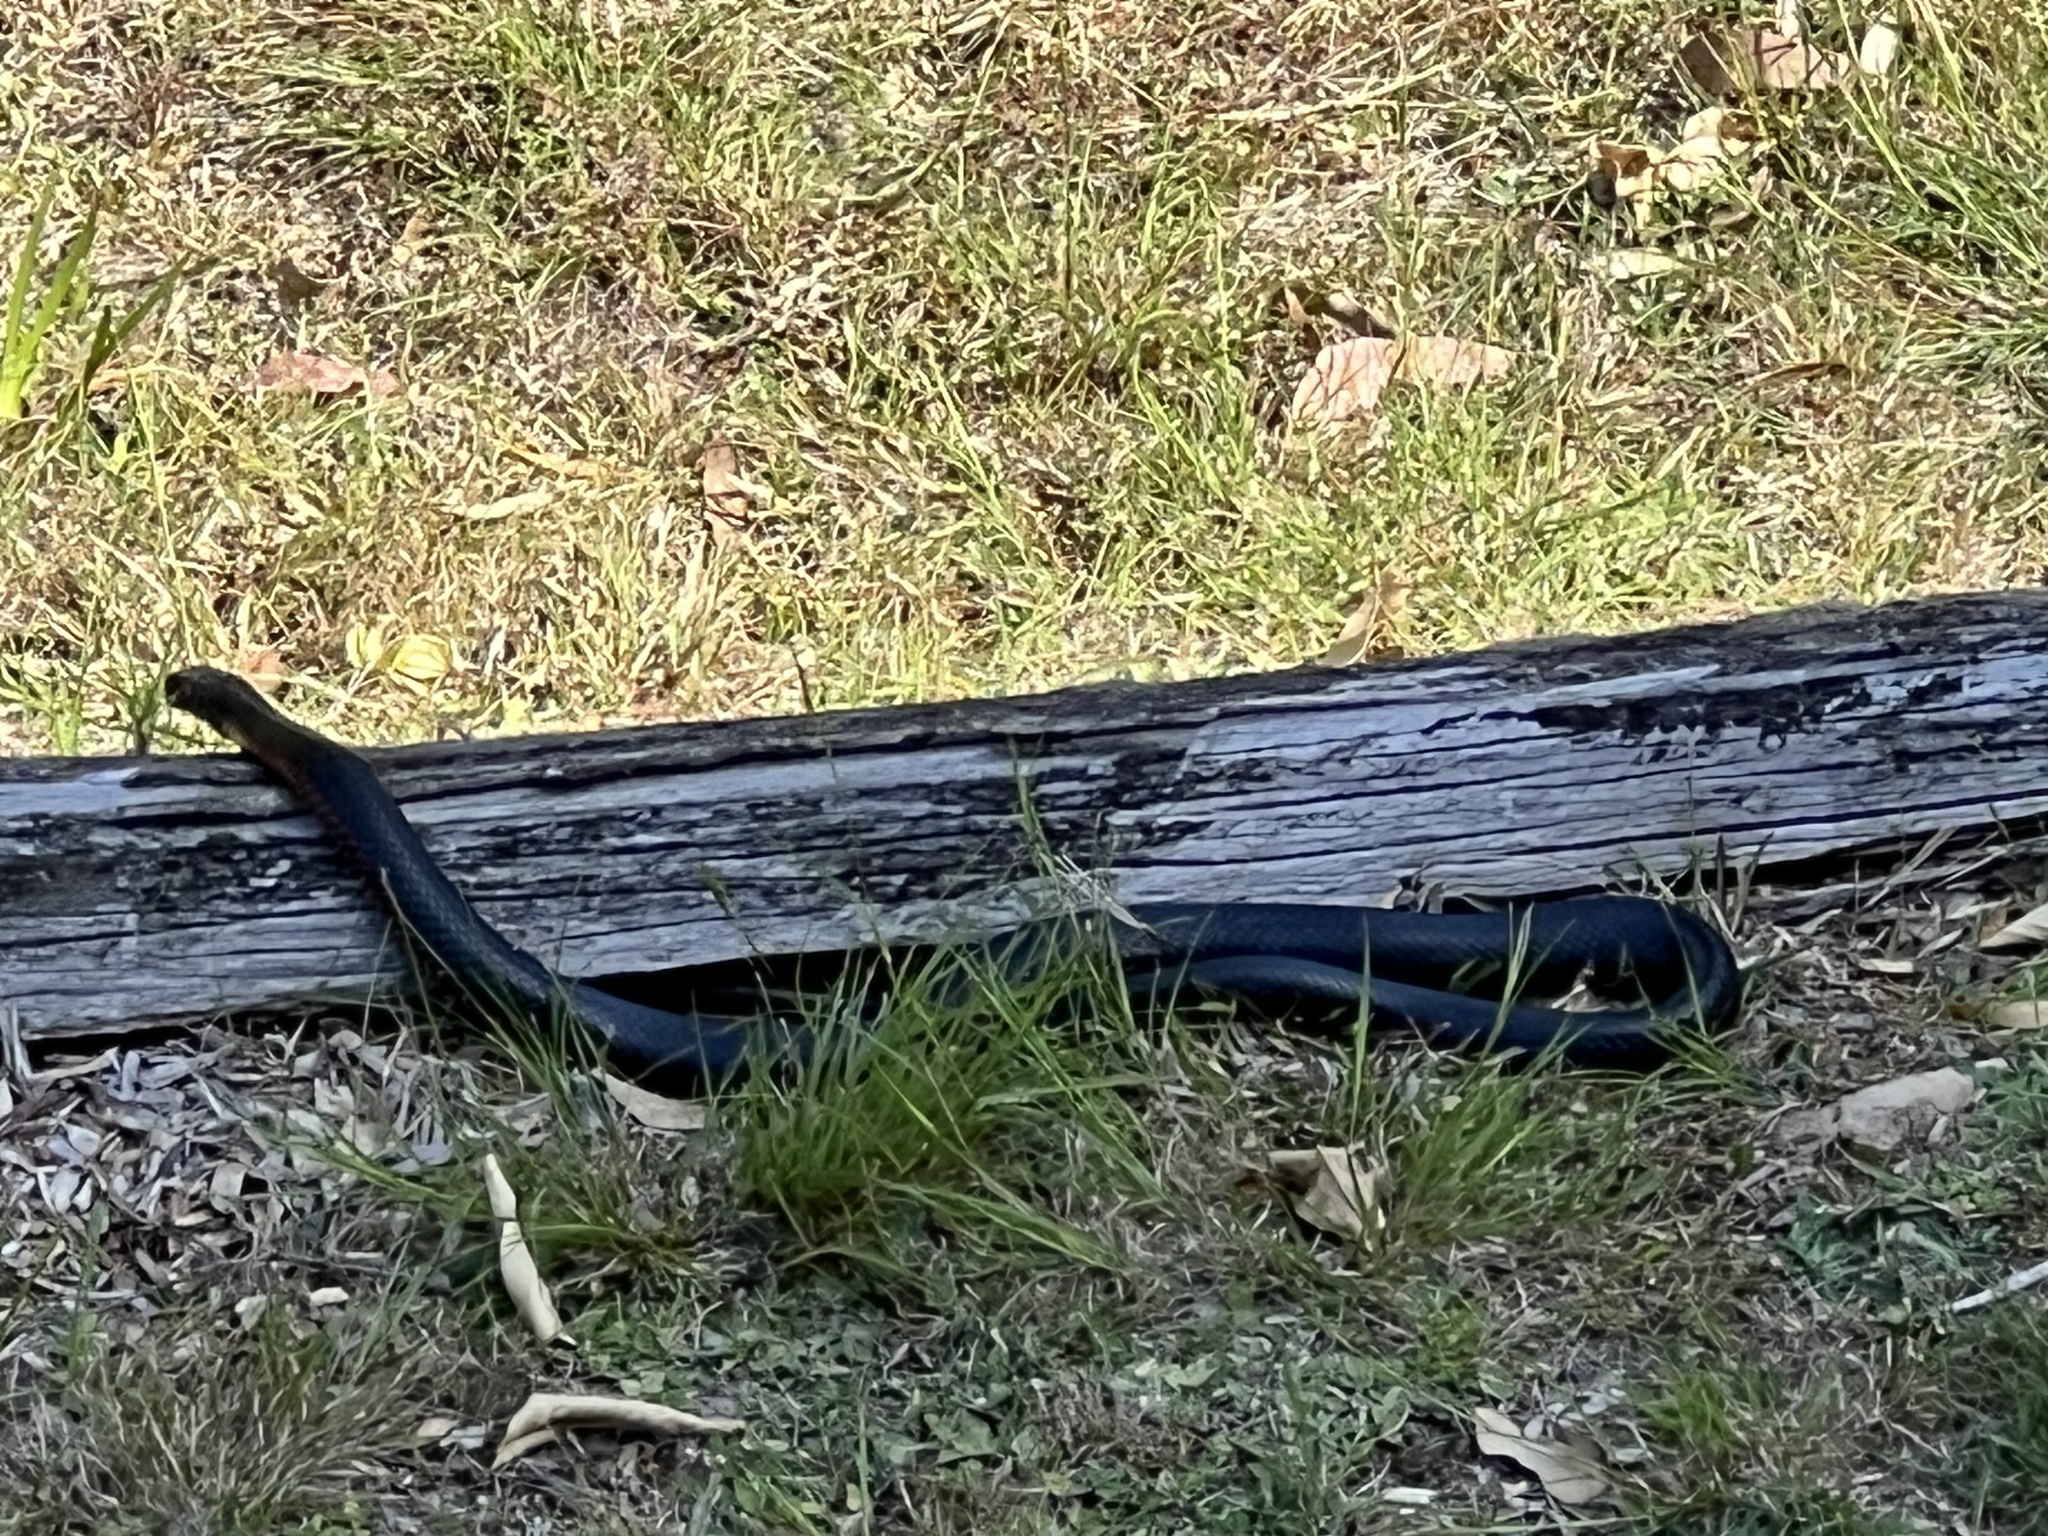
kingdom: Animalia
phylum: Chordata
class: Squamata
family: Elapidae
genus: Pseudechis
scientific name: Pseudechis porphyriacus
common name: Australian black snake
